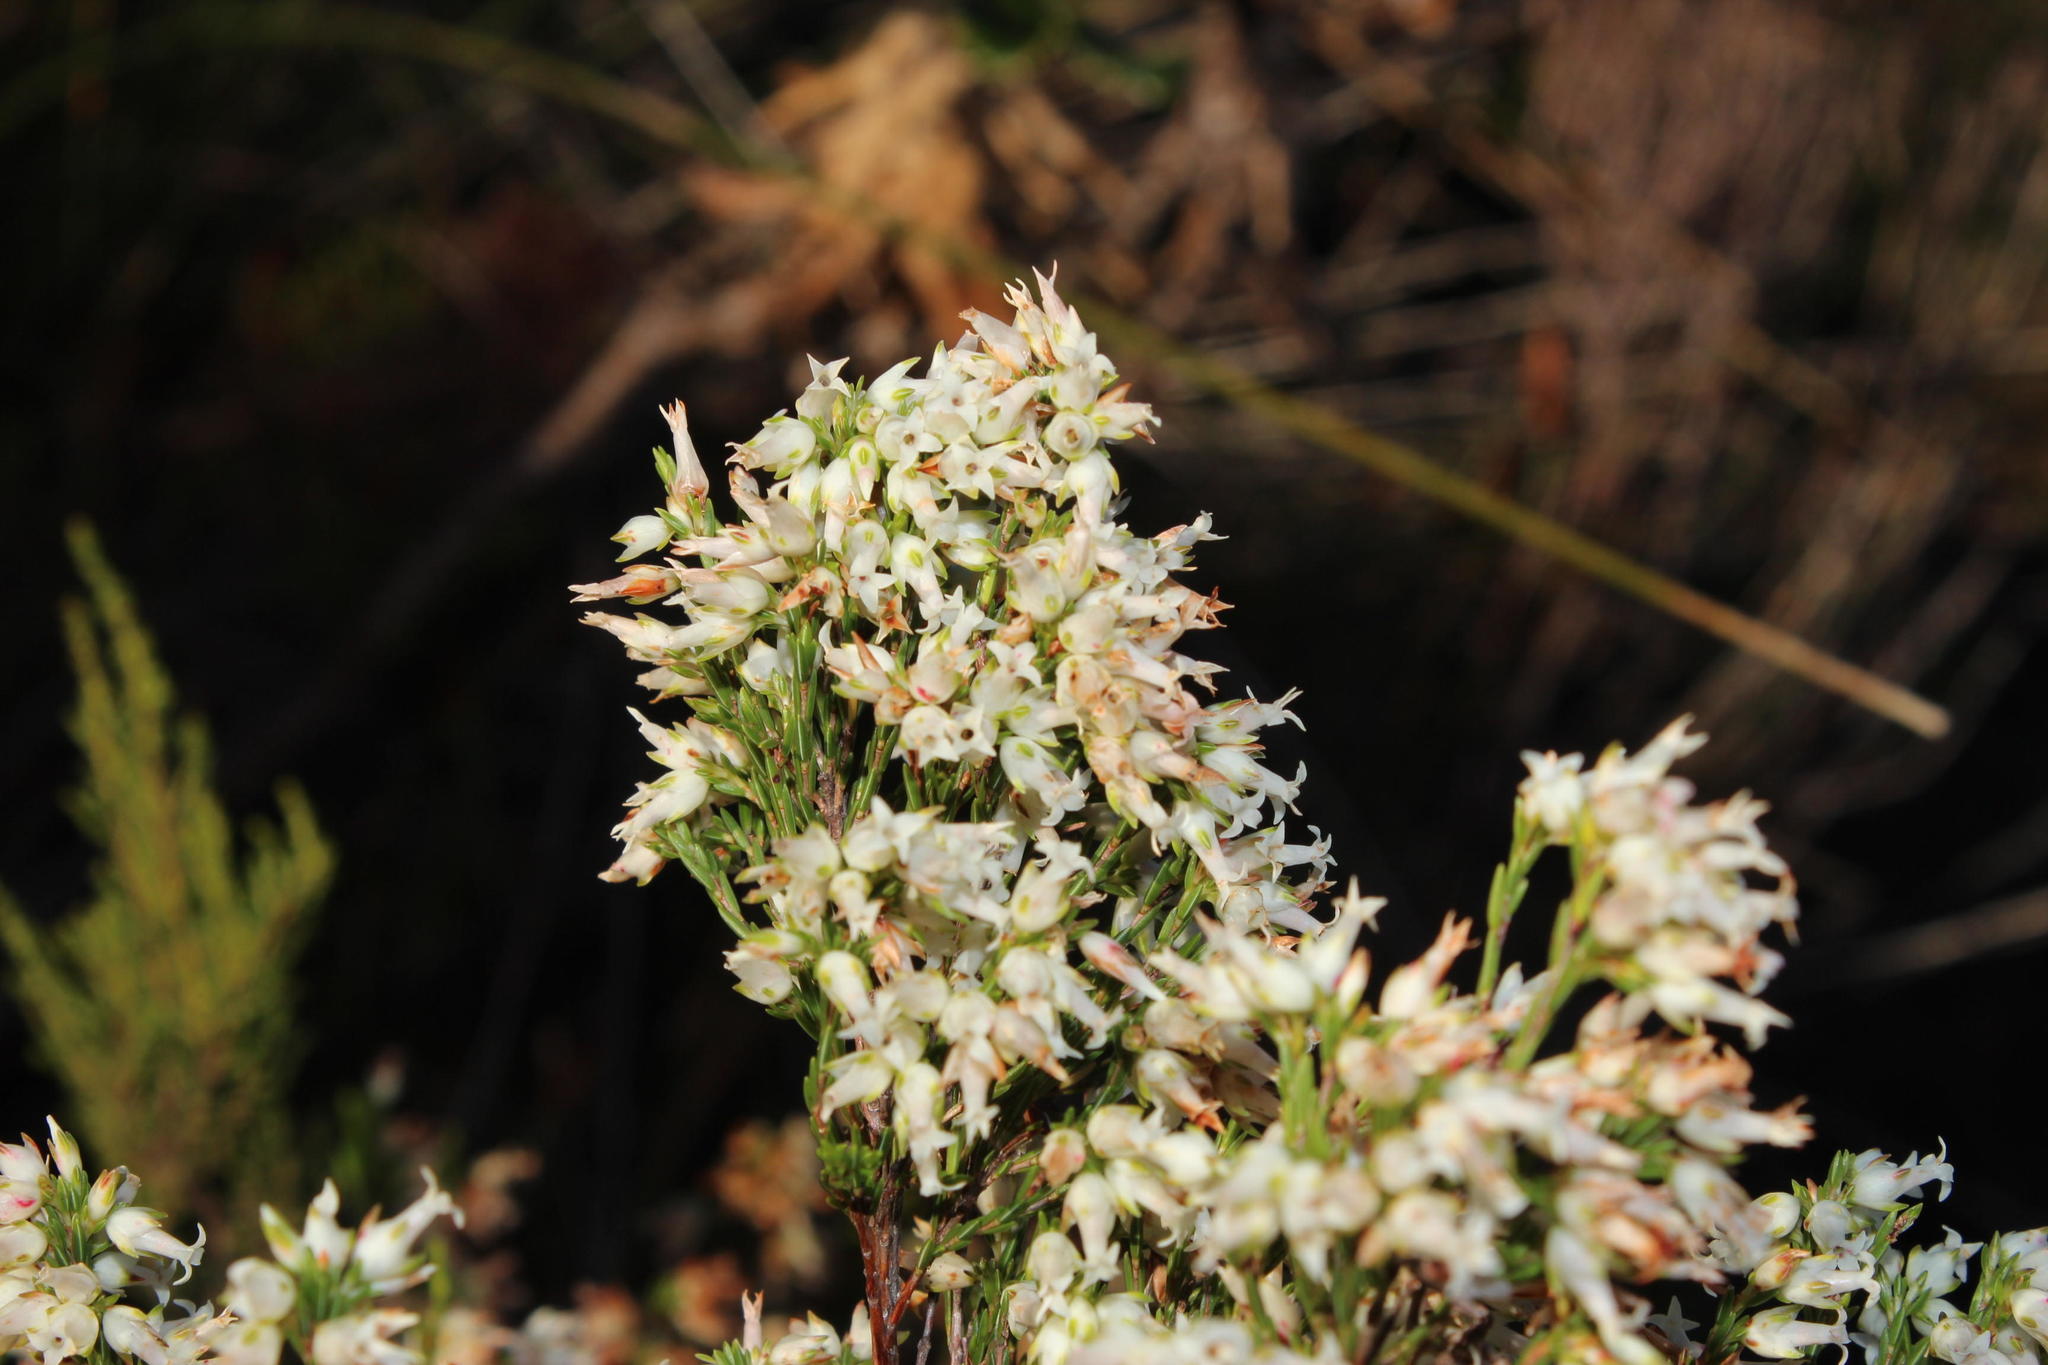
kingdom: Plantae
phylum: Tracheophyta
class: Magnoliopsida
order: Ericales
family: Ericaceae
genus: Erica
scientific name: Erica lutea
